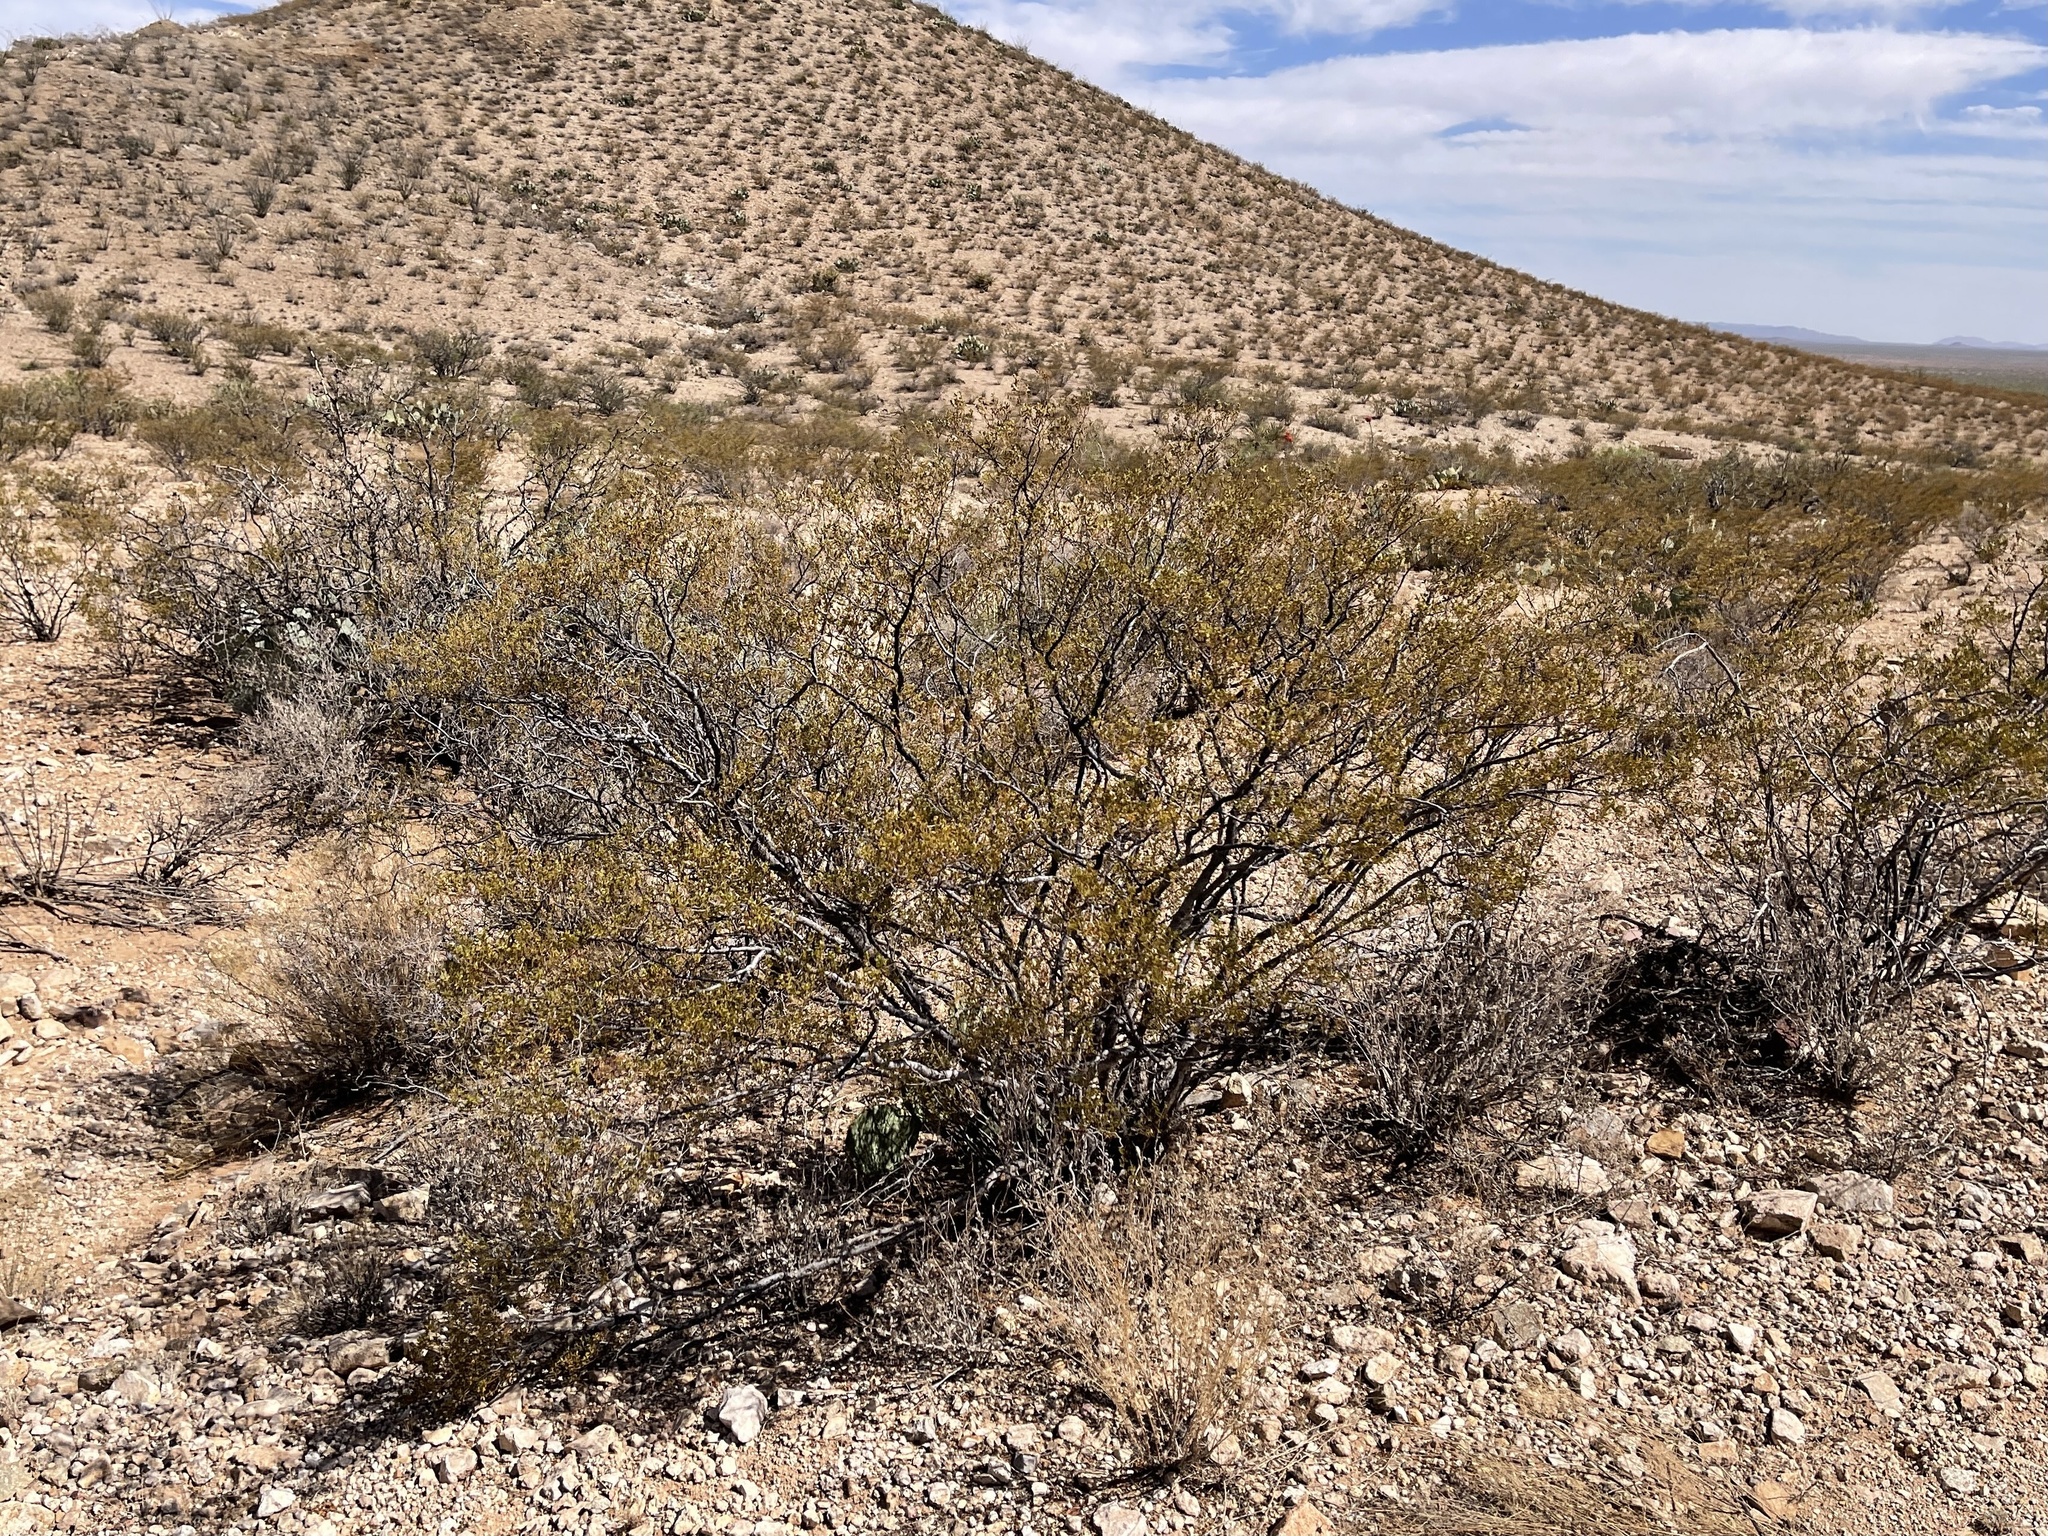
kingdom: Plantae
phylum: Tracheophyta
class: Magnoliopsida
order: Zygophyllales
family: Zygophyllaceae
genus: Larrea
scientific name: Larrea tridentata
